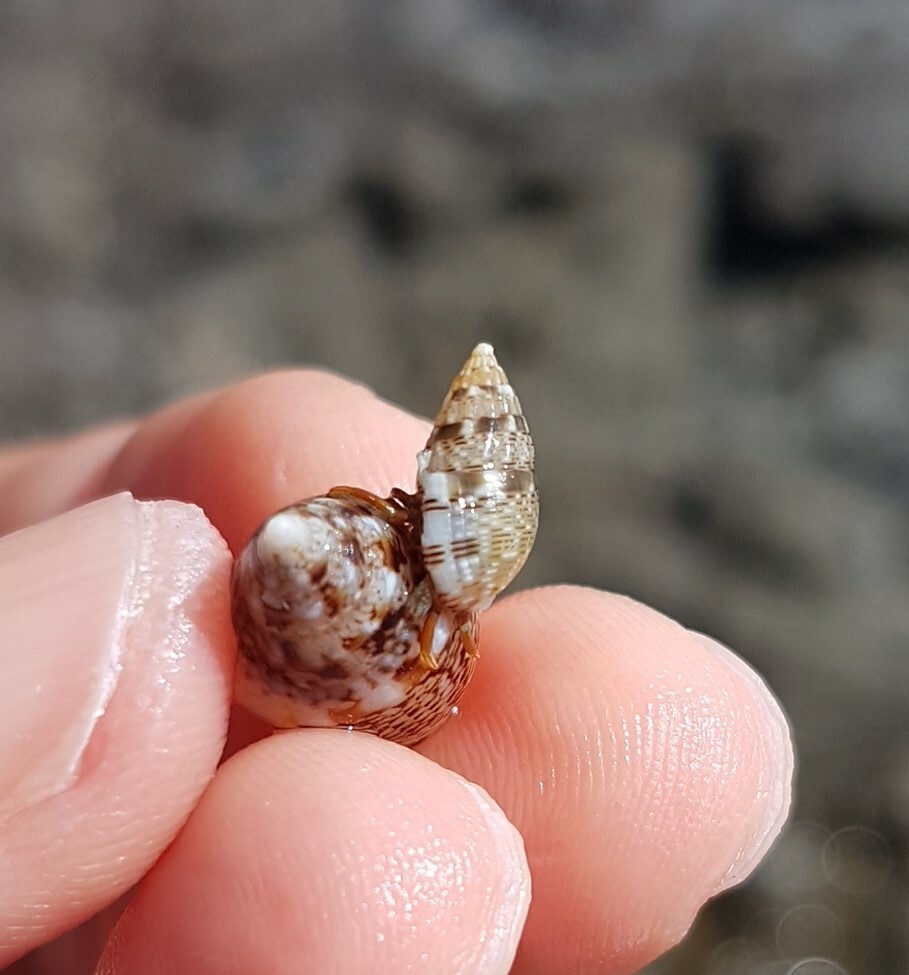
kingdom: Animalia
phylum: Mollusca
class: Gastropoda
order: Neogastropoda
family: Nassariidae
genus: Tritia
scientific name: Tritia cuvierii
